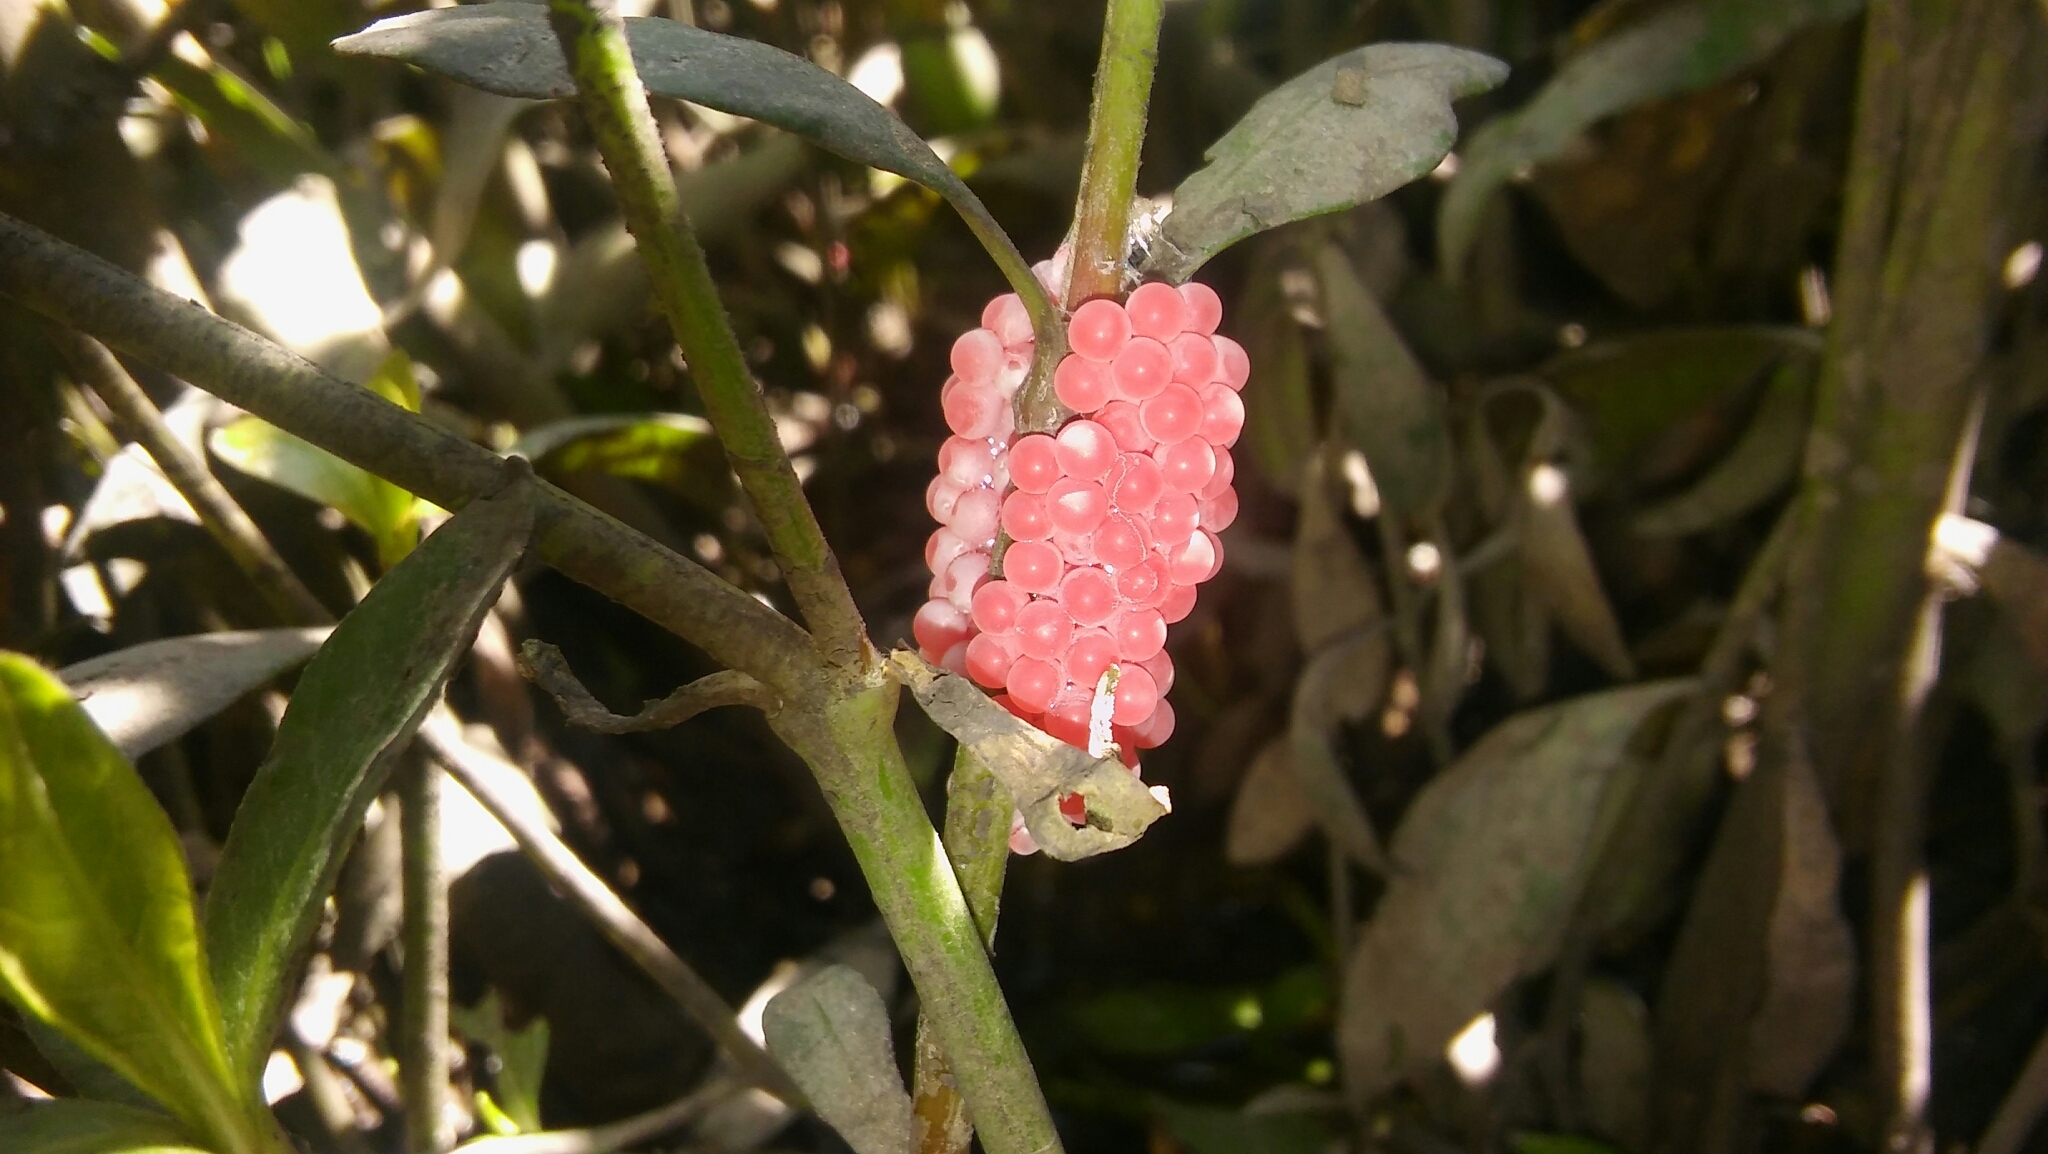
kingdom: Animalia
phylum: Mollusca
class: Gastropoda
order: Architaenioglossa
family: Ampullariidae
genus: Pomacea
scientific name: Pomacea canaliculata
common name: Channeled applesnail
